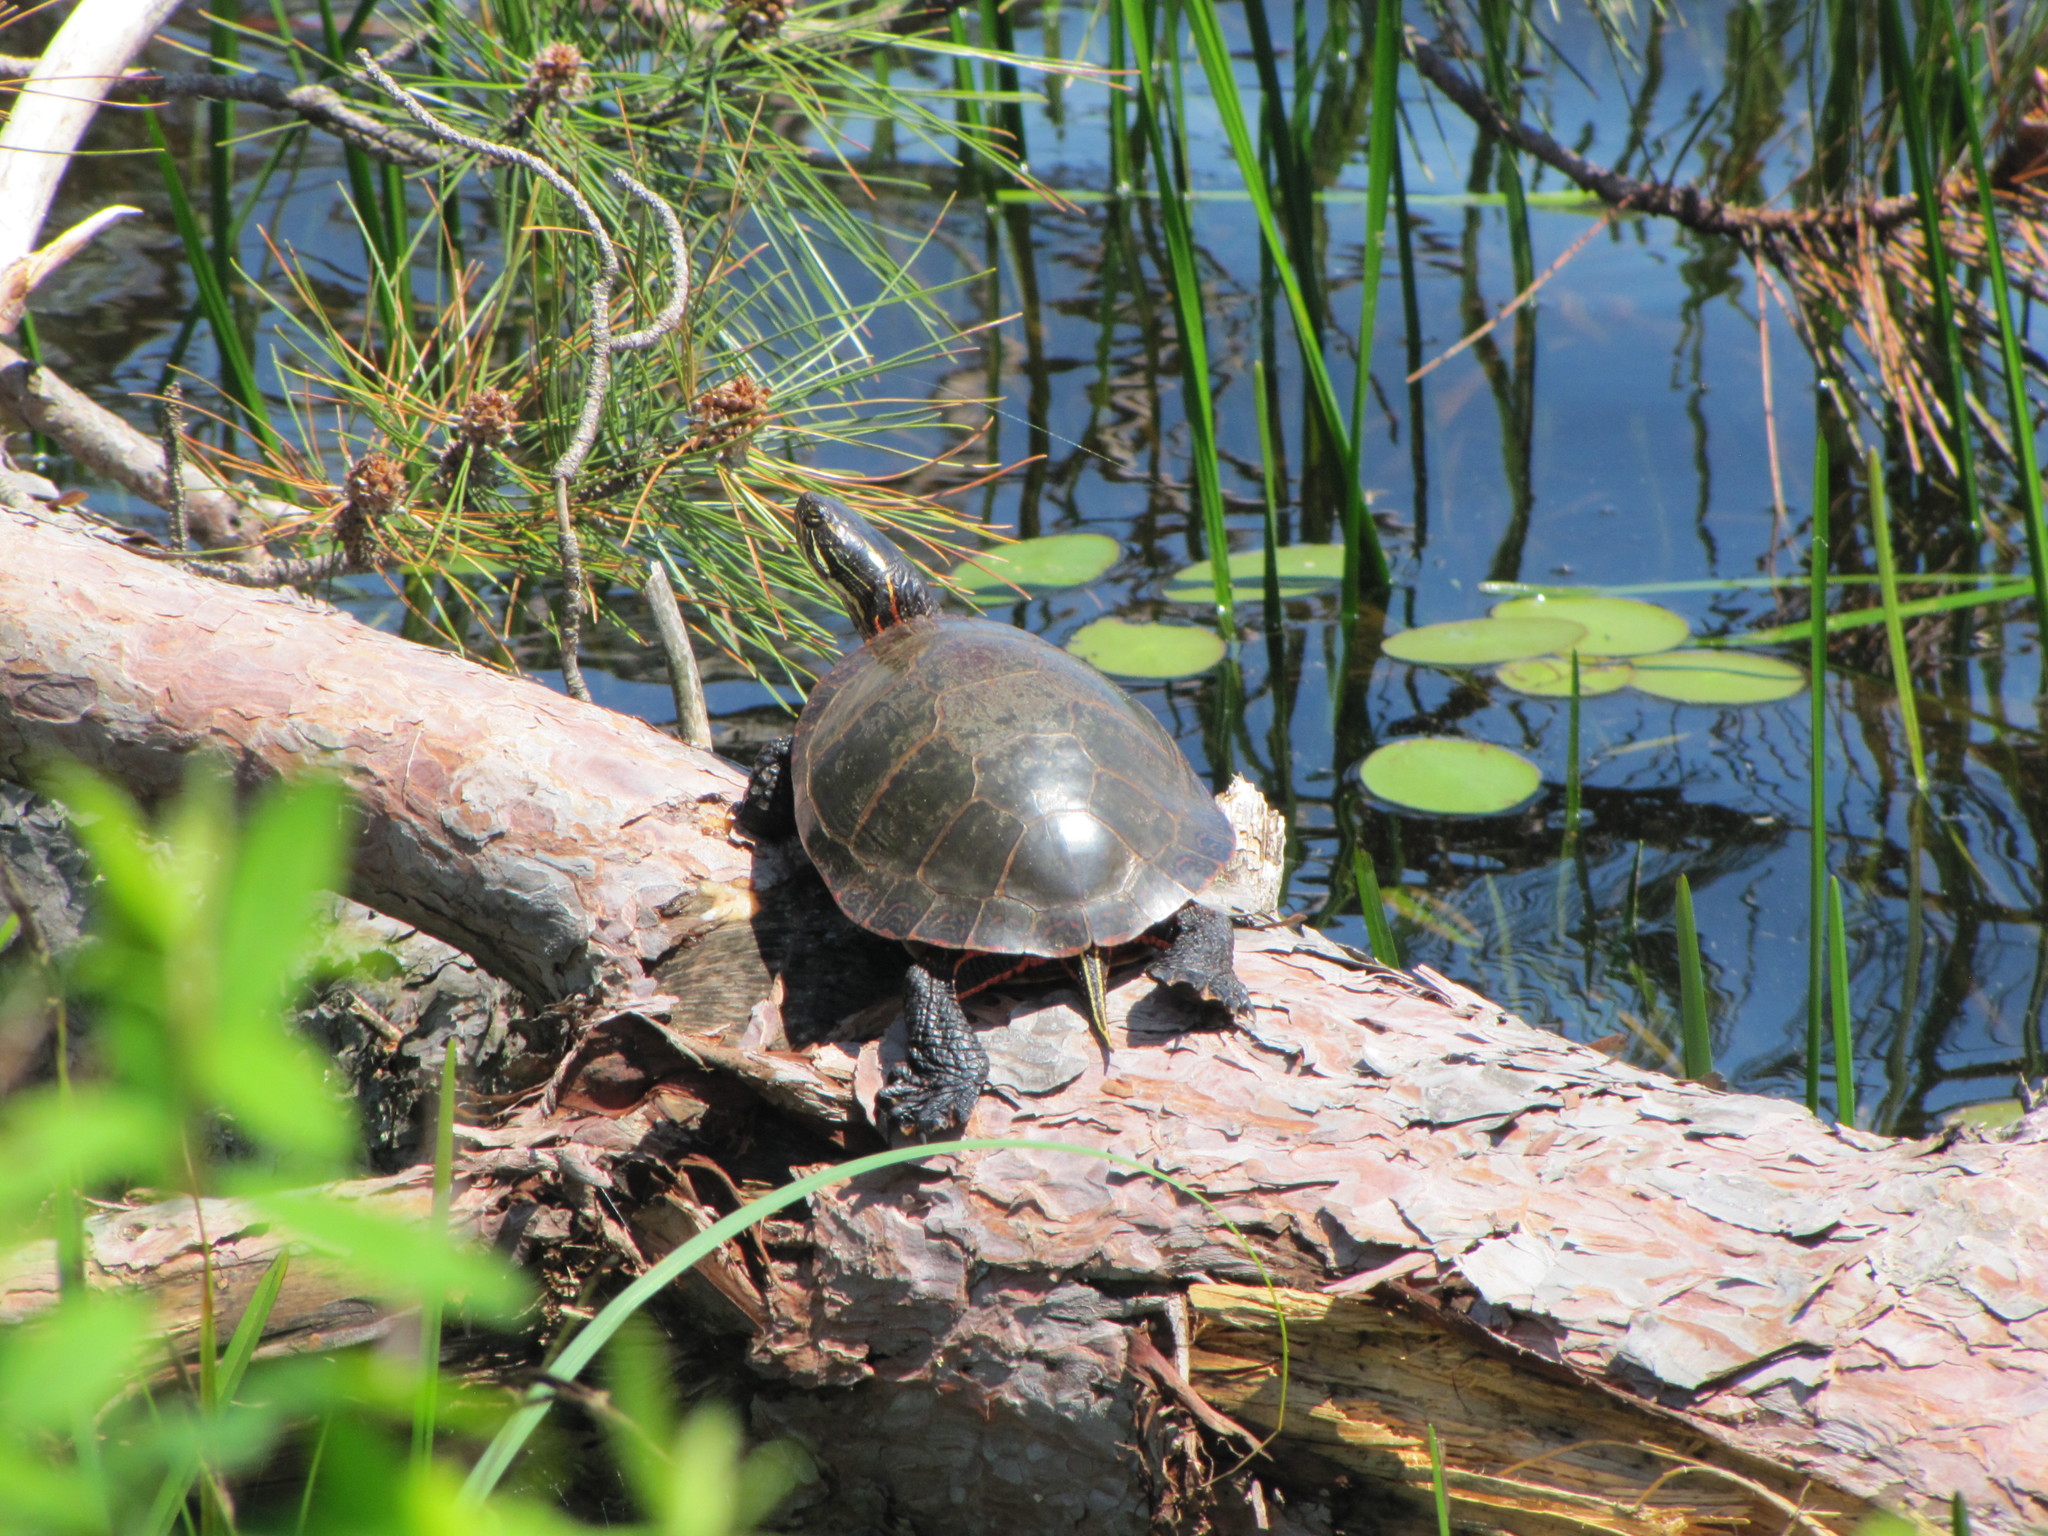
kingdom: Animalia
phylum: Chordata
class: Testudines
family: Emydidae
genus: Chrysemys
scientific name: Chrysemys picta
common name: Painted turtle
